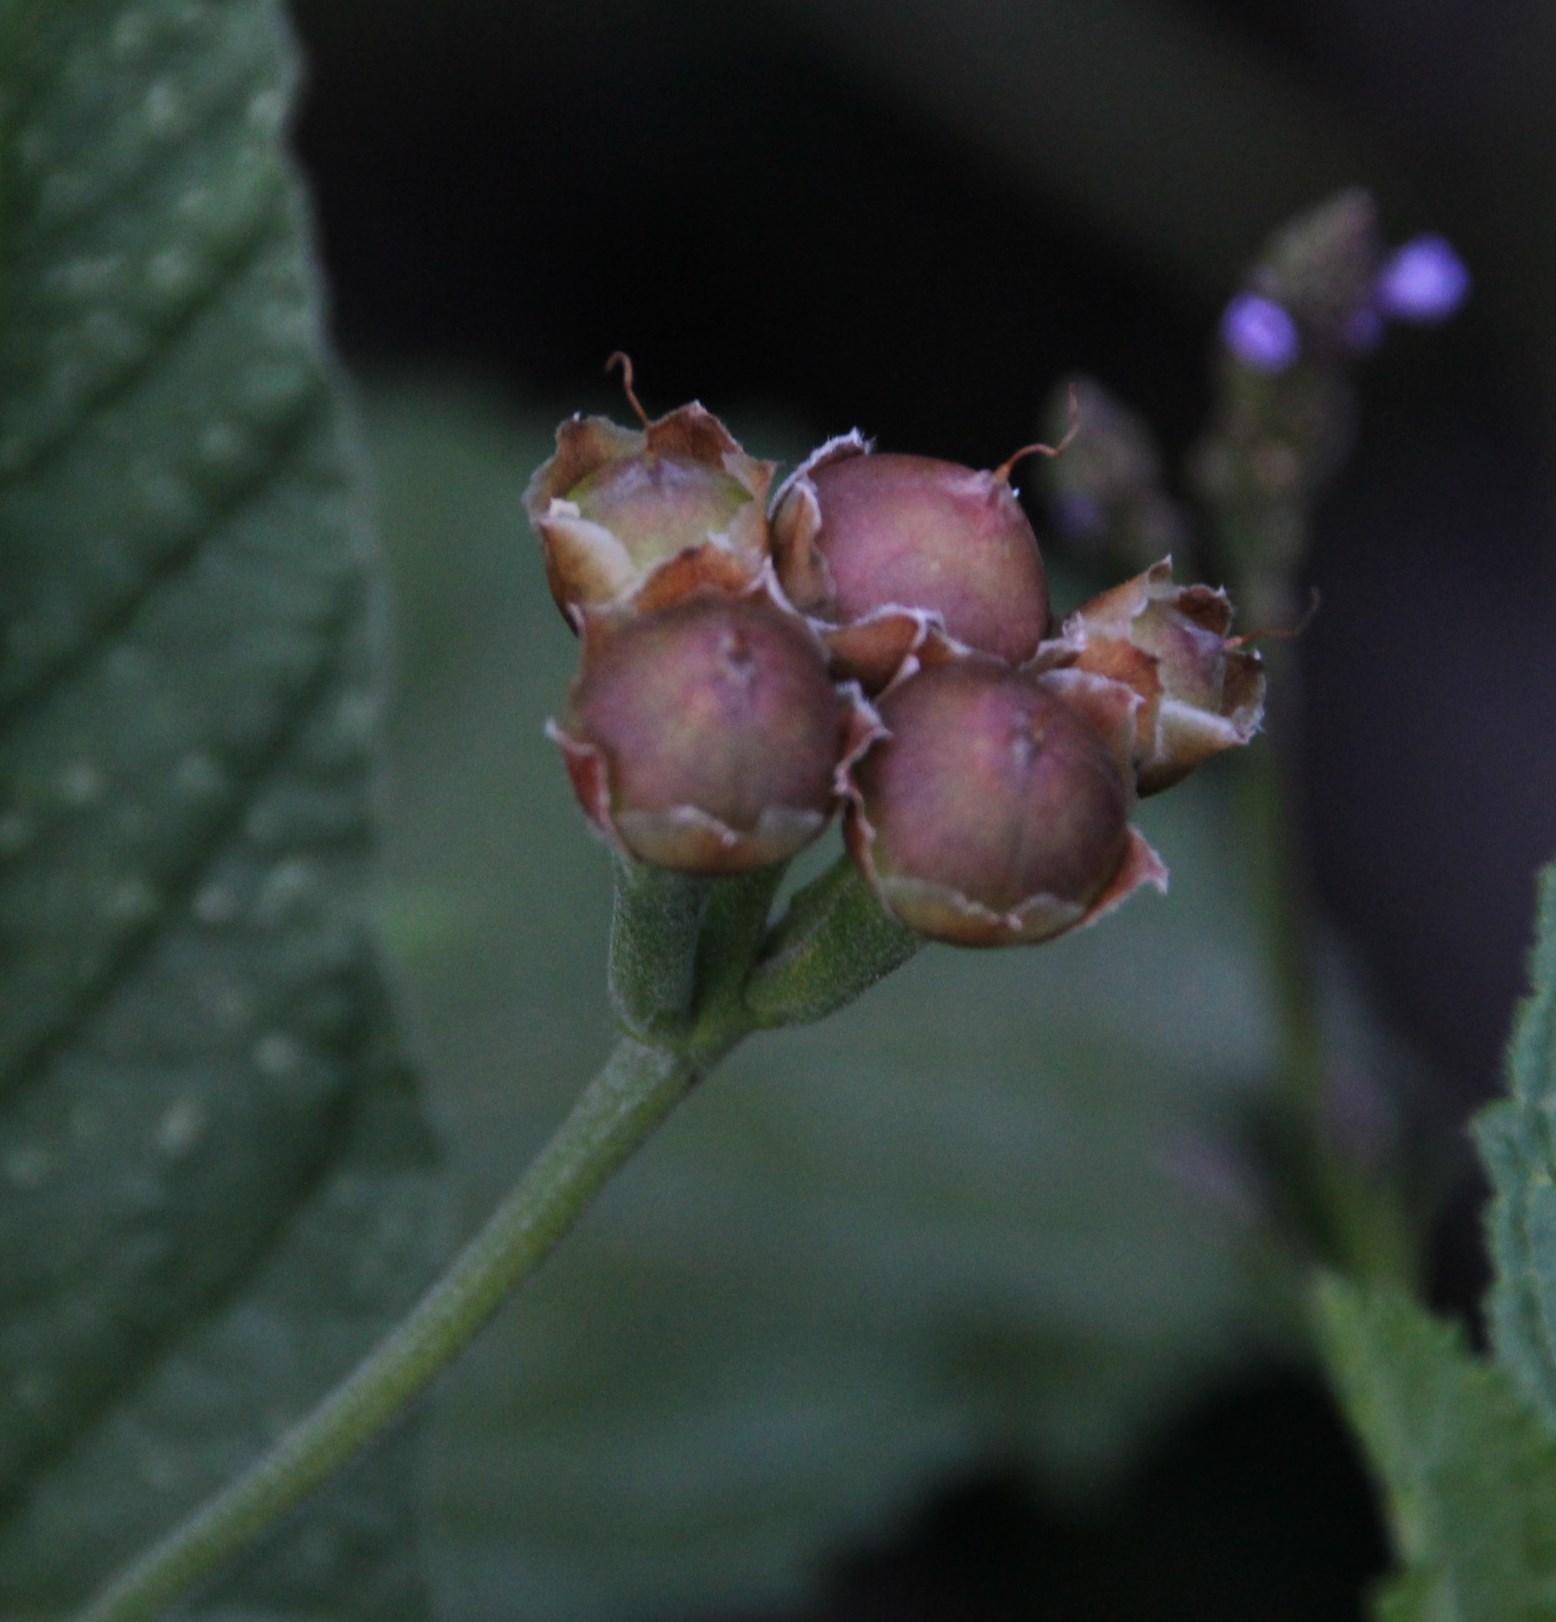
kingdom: Plantae
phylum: Tracheophyta
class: Magnoliopsida
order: Malvales
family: Malvaceae
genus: Pavonia
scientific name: Pavonia sepium
